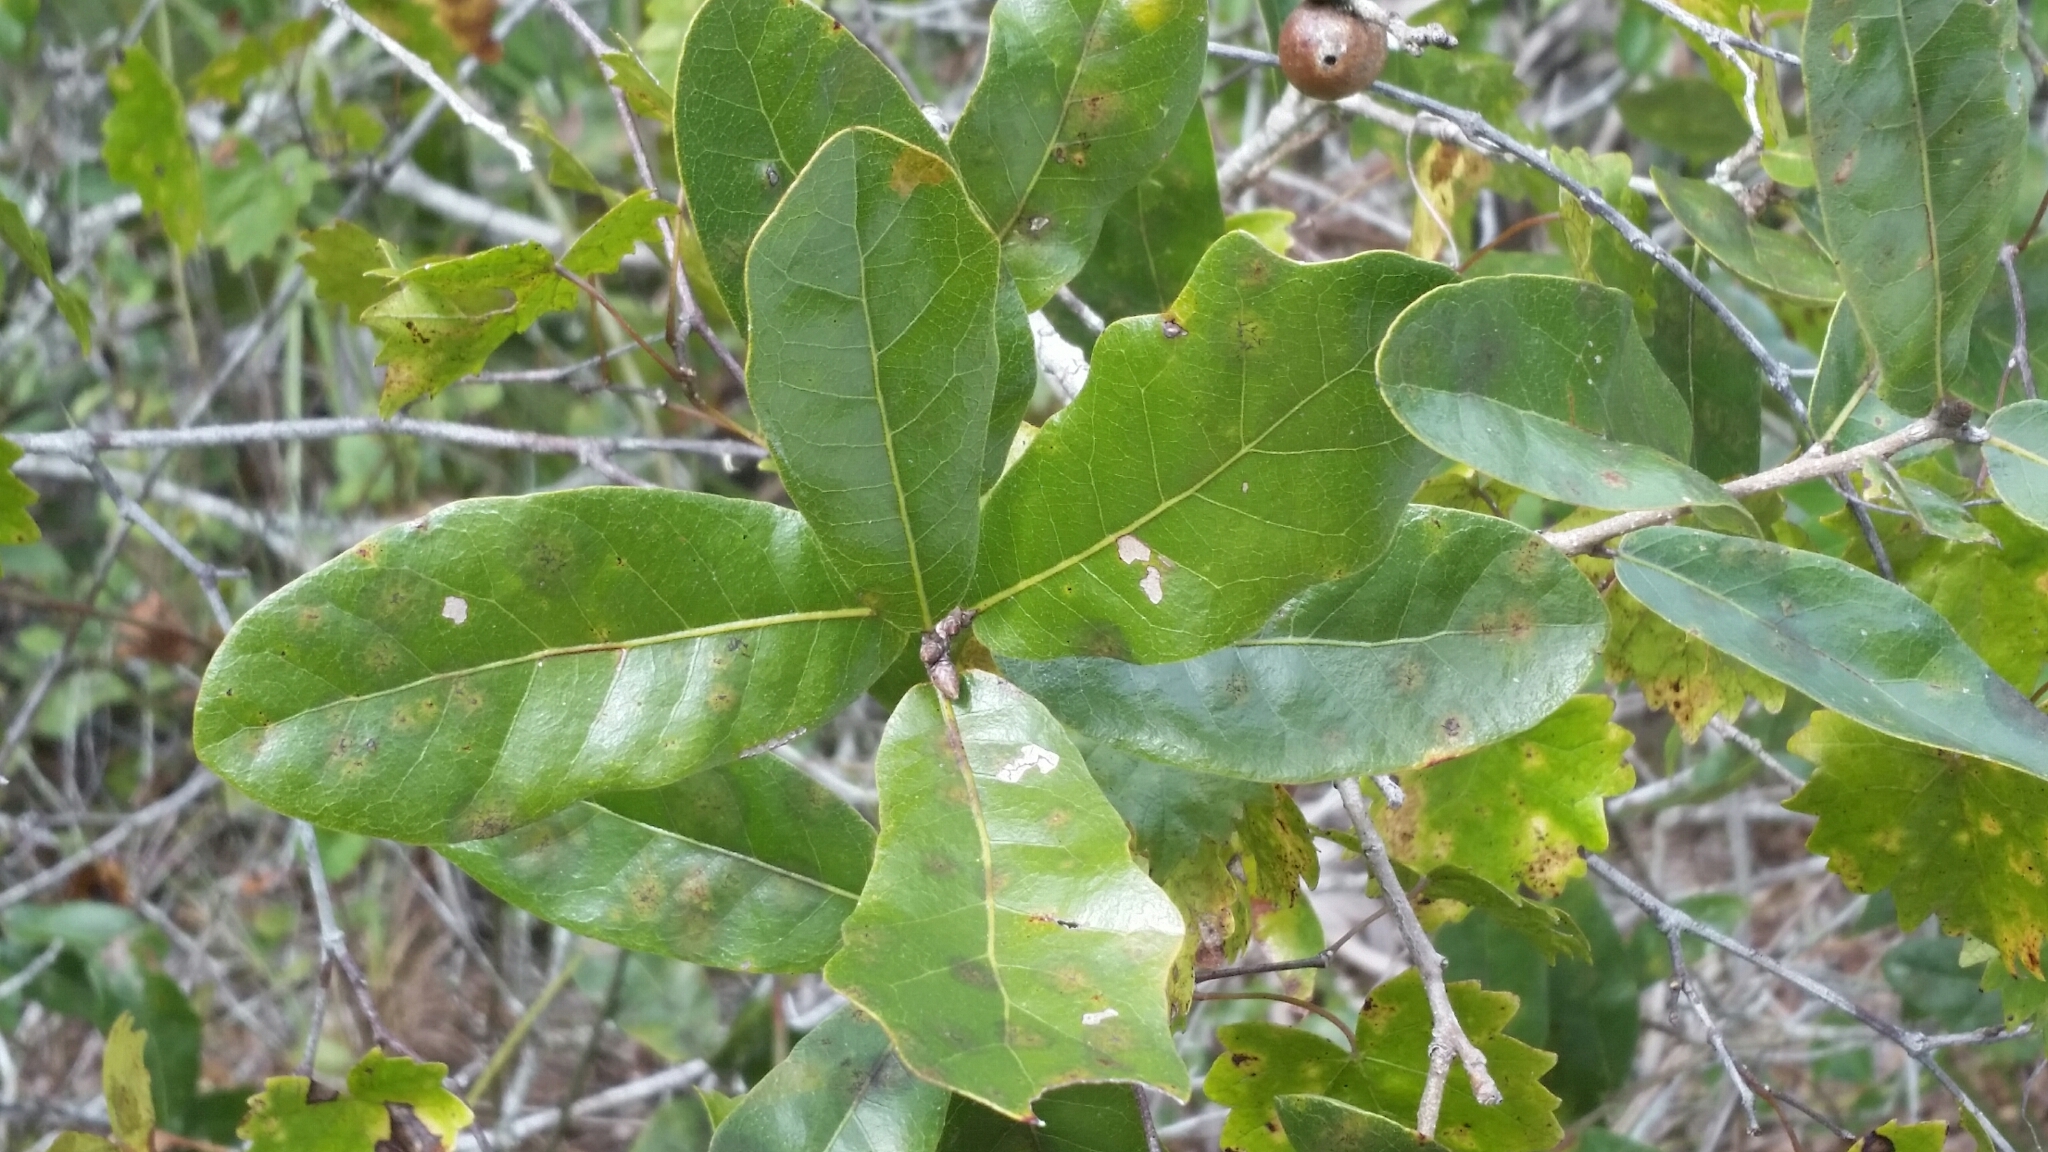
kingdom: Plantae
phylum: Tracheophyta
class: Magnoliopsida
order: Fagales
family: Fagaceae
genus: Quercus
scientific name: Quercus chapmanii
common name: Chapman oak
